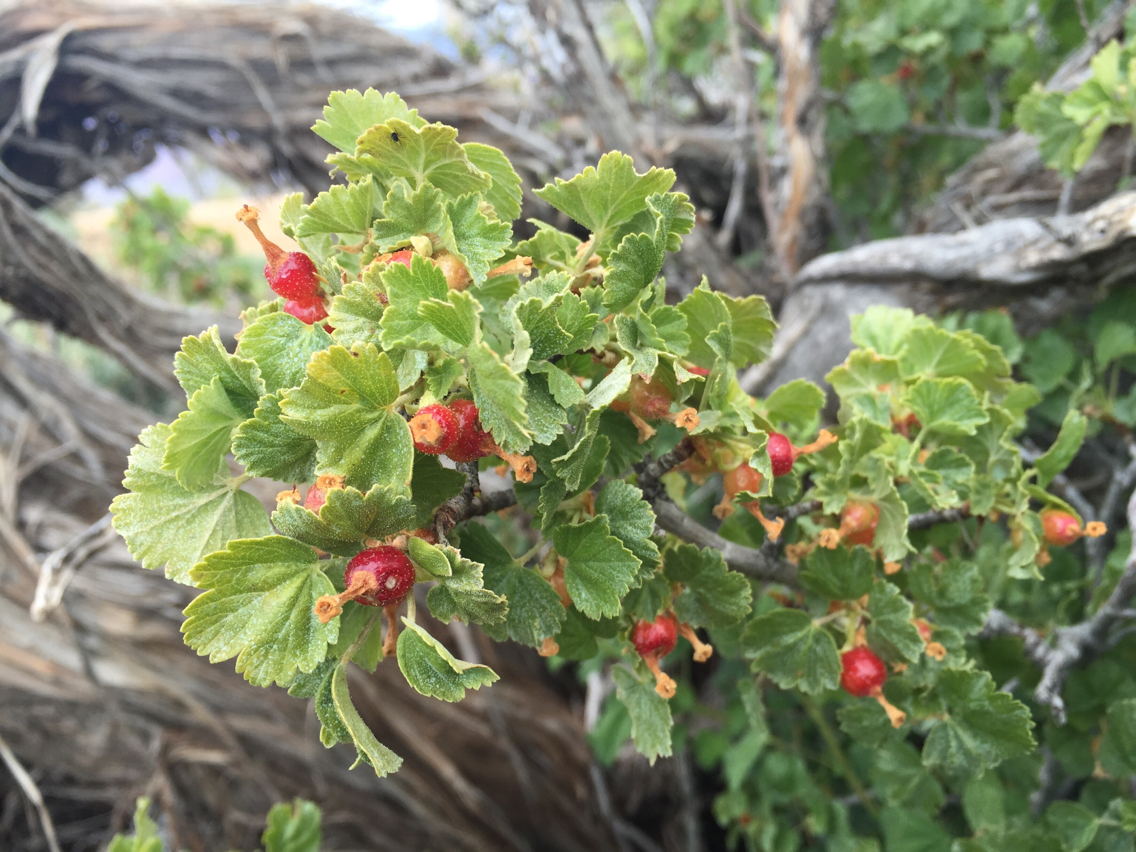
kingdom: Plantae
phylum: Tracheophyta
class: Magnoliopsida
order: Saxifragales
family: Grossulariaceae
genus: Ribes
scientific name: Ribes cereum
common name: Wax currant
